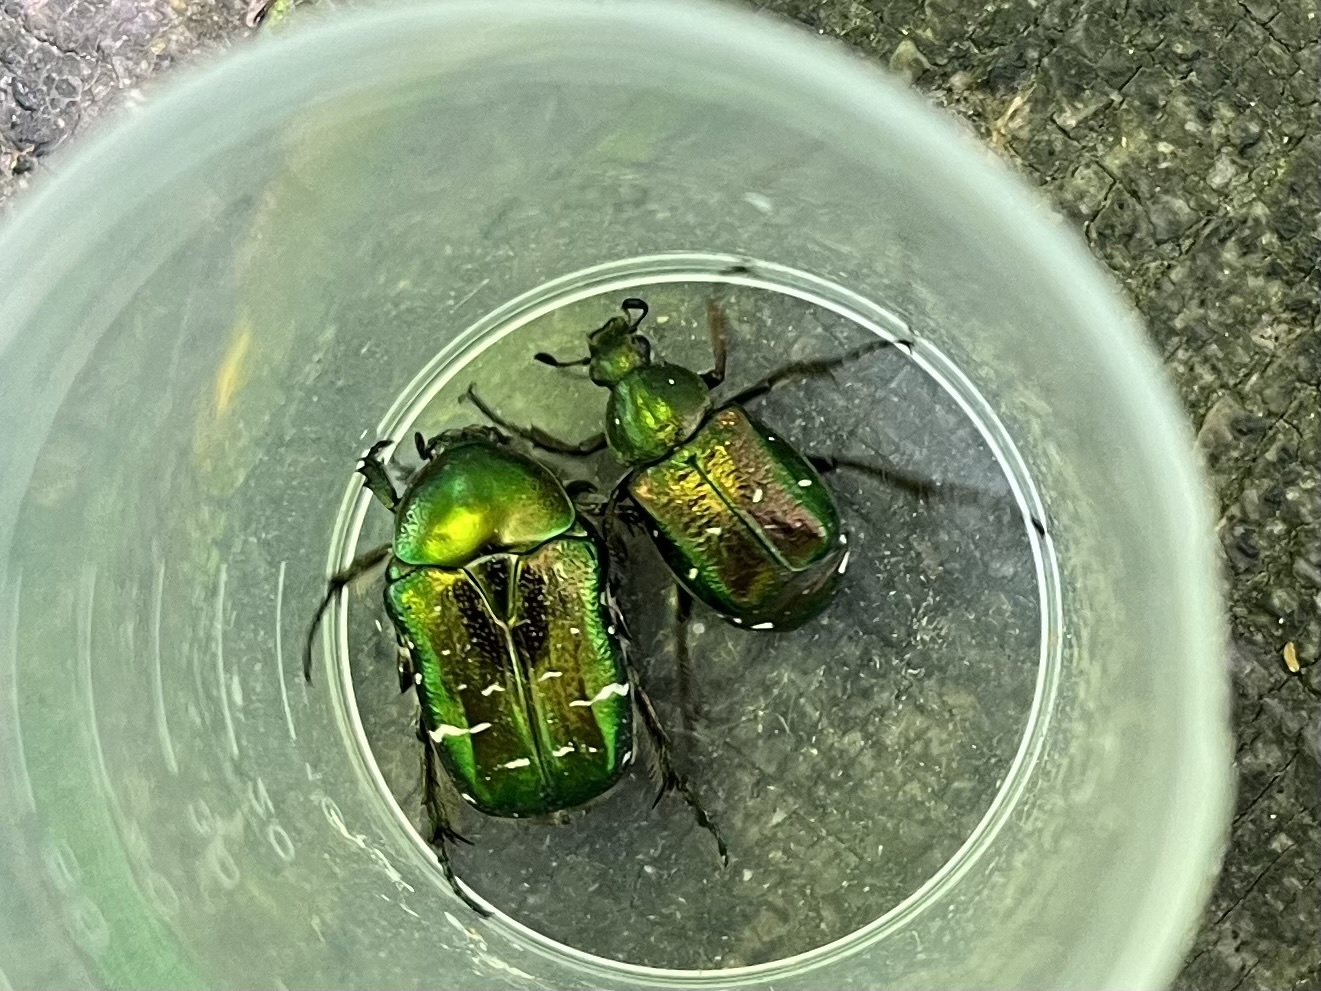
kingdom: Animalia
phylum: Arthropoda
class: Insecta
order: Coleoptera
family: Scarabaeidae
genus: Cetonia
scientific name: Cetonia aurata
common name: Rose chafer
